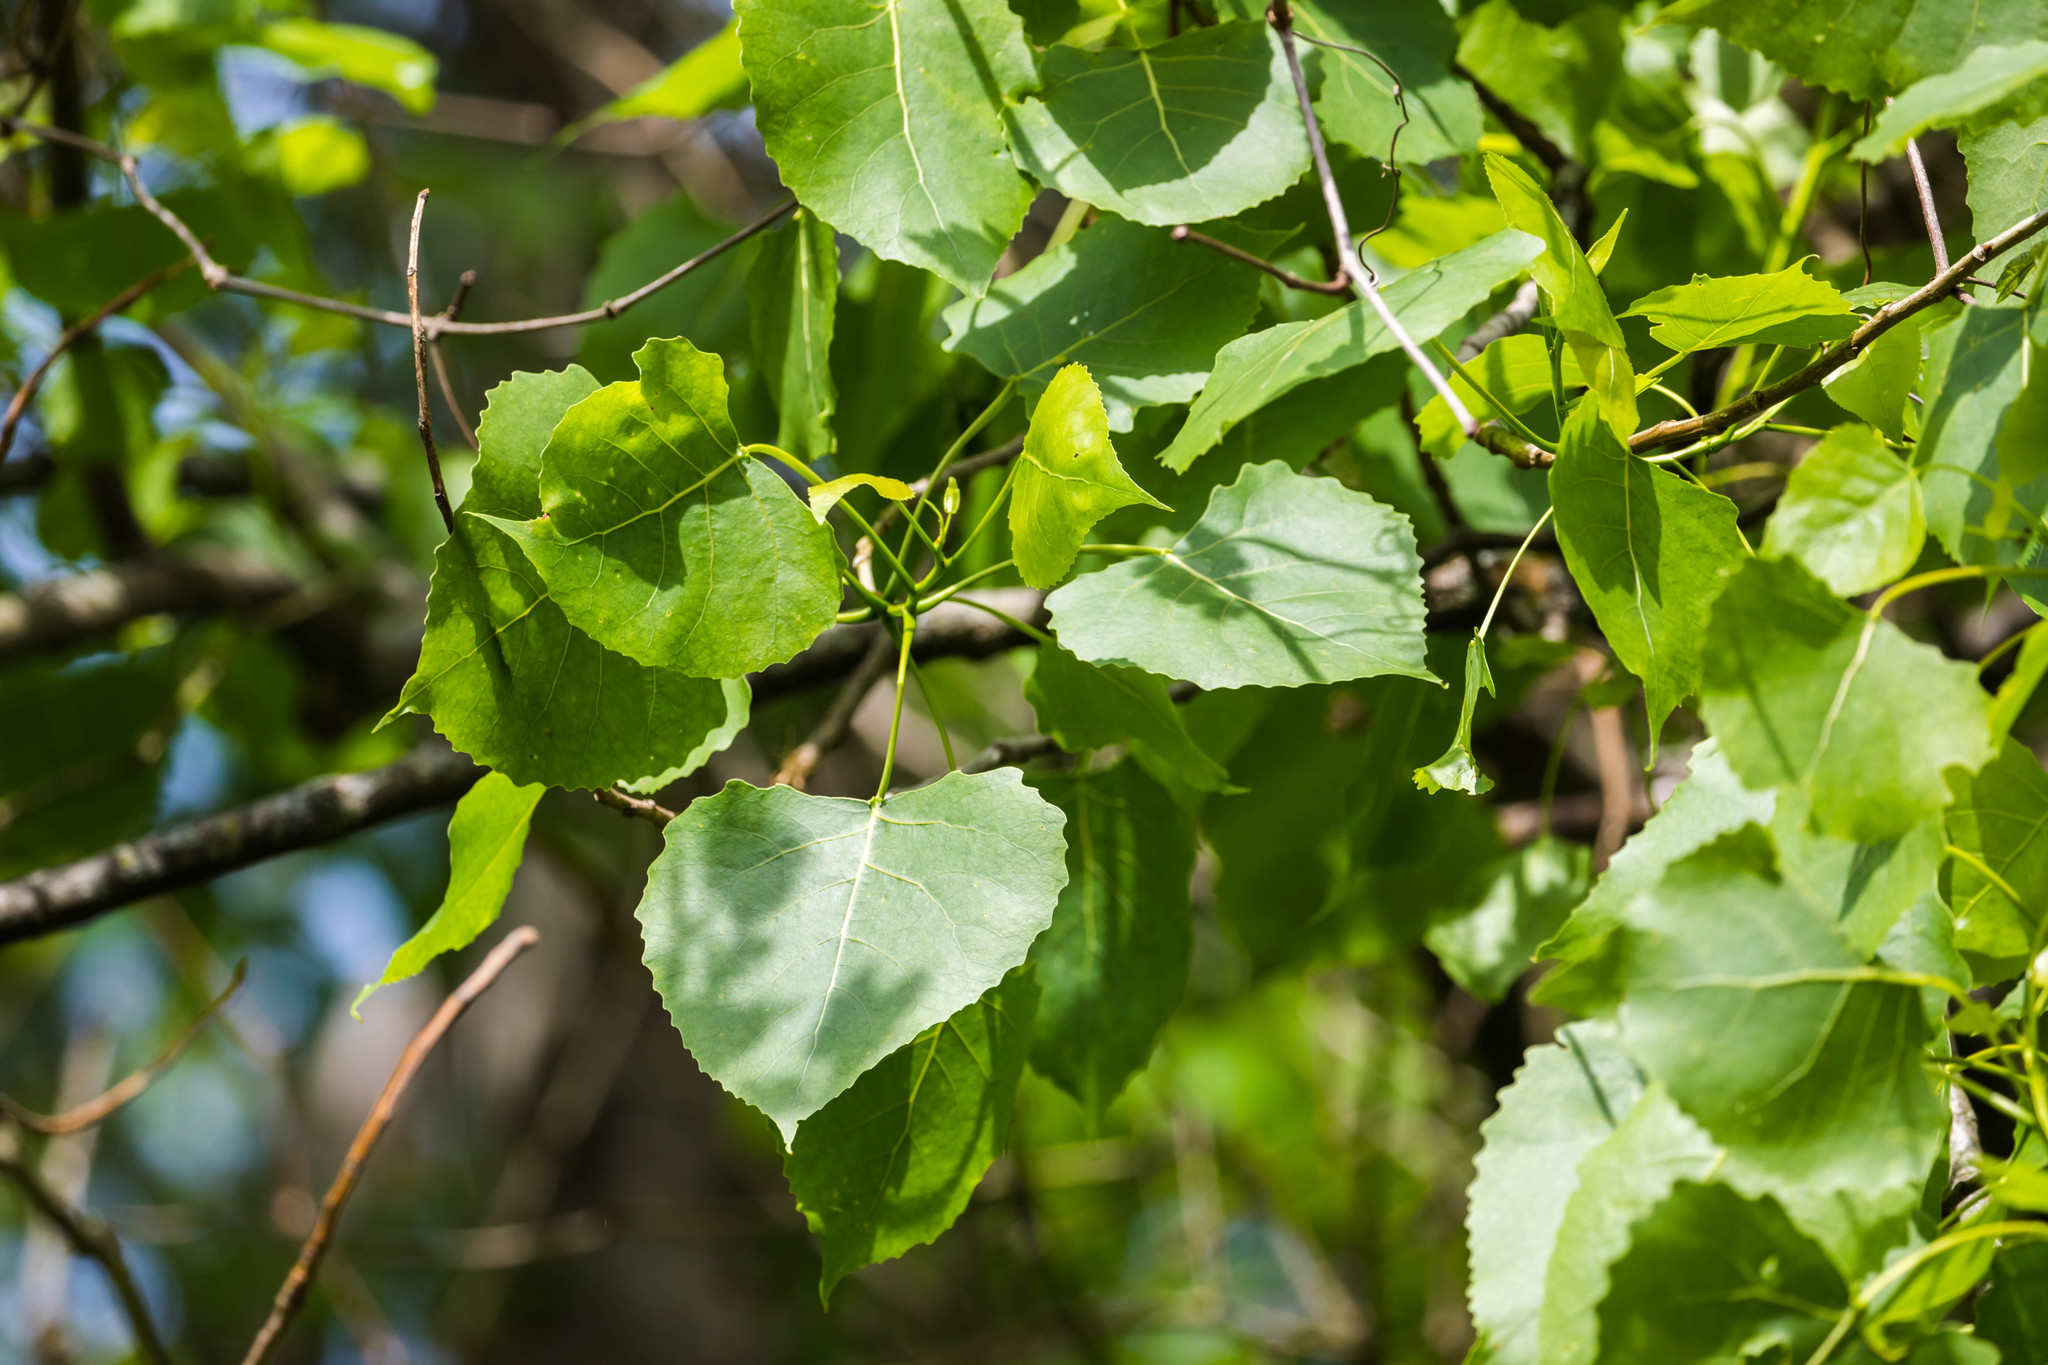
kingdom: Plantae
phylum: Tracheophyta
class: Magnoliopsida
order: Malpighiales
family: Salicaceae
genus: Populus
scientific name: Populus deltoides
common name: Eastern cottonwood
